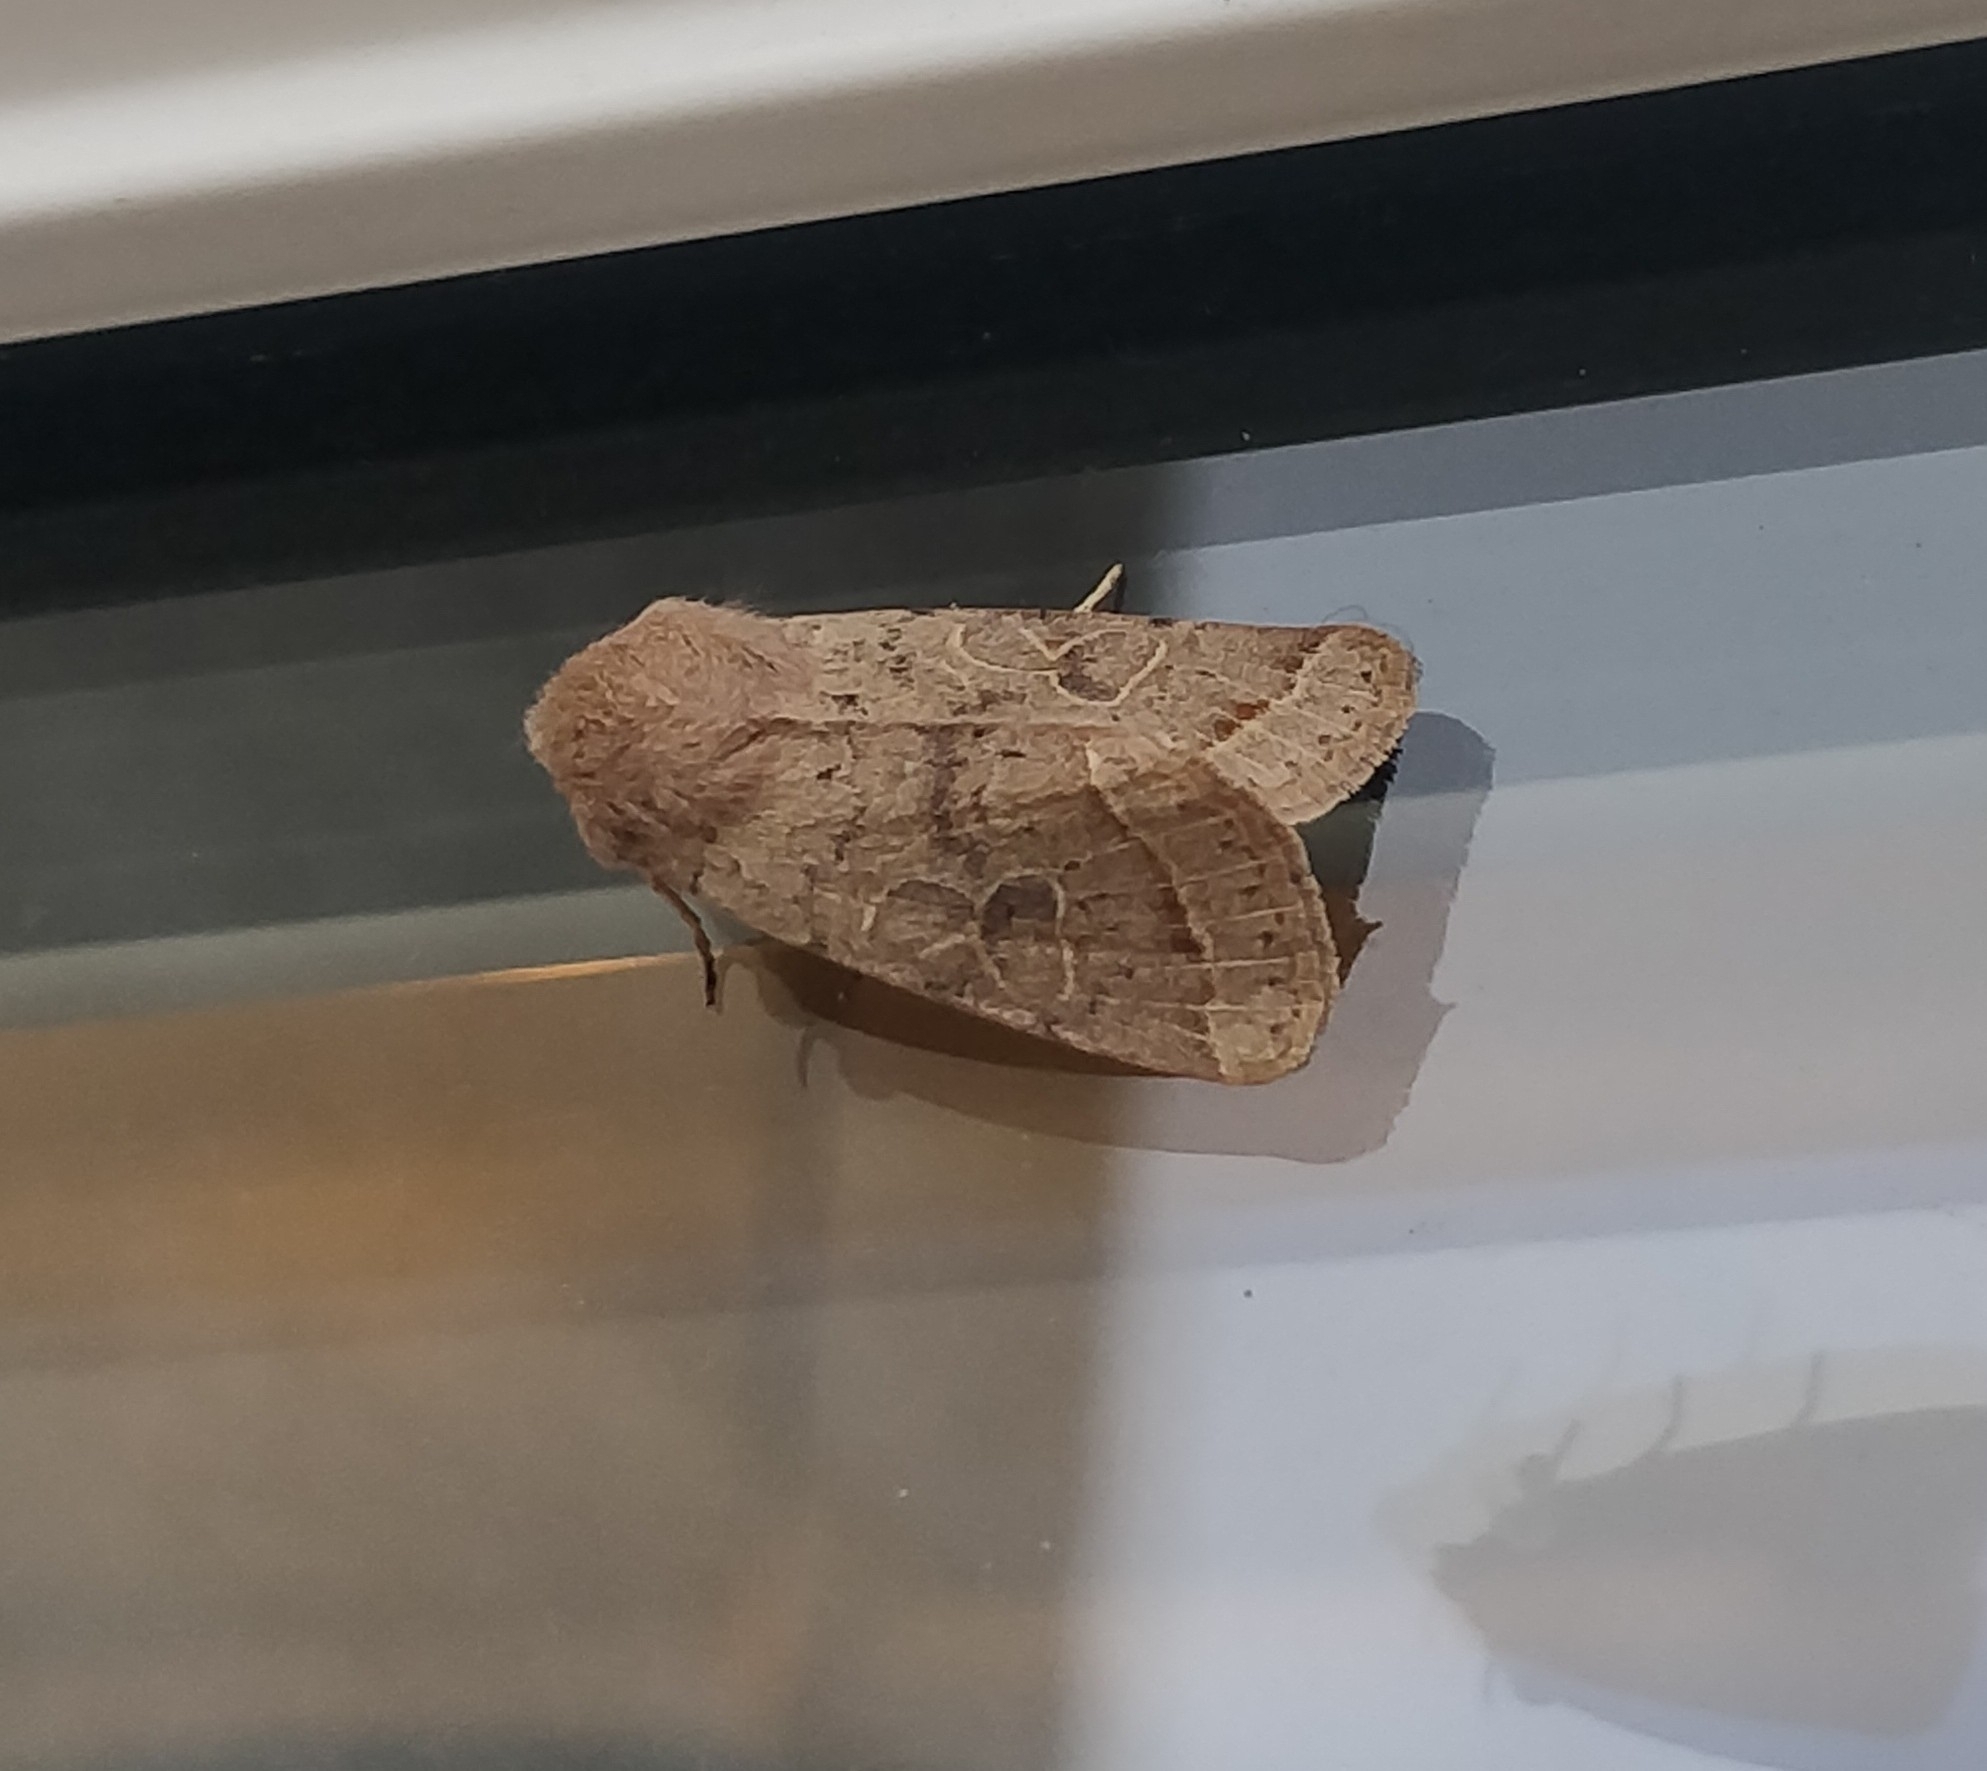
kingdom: Animalia
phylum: Arthropoda
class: Insecta
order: Lepidoptera
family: Noctuidae
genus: Orthosia
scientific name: Orthosia cerasi
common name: Common quaker
